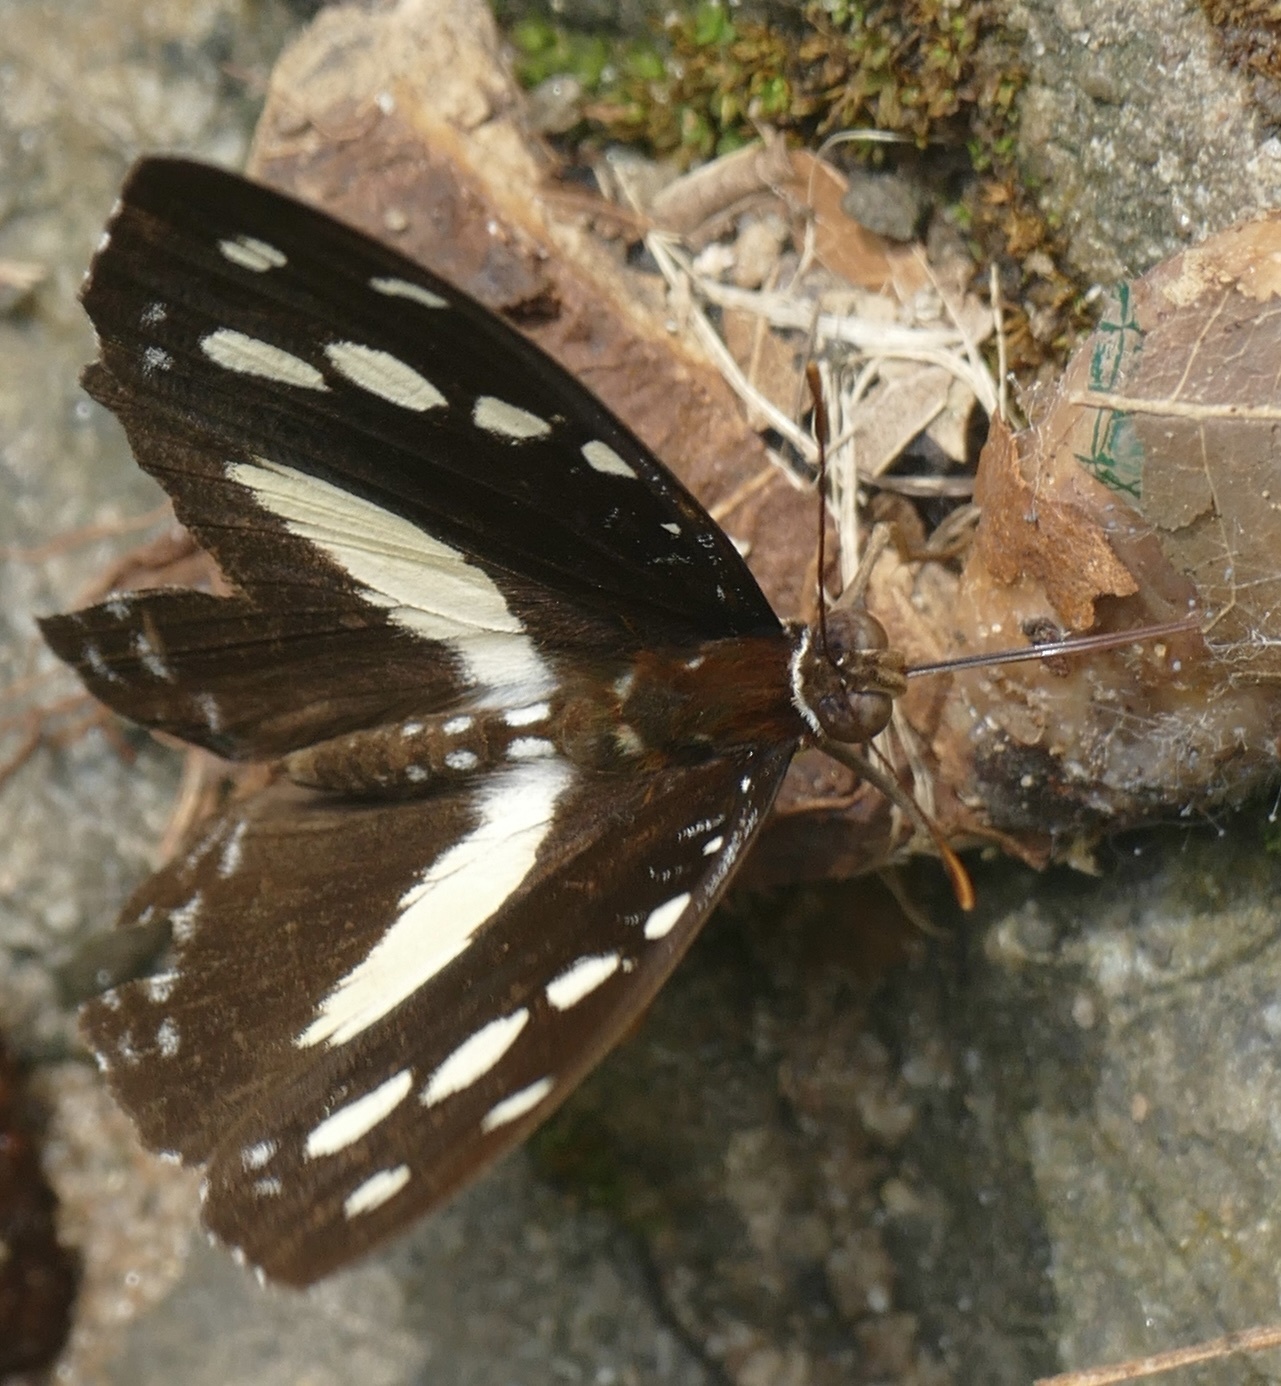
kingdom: Animalia
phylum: Arthropoda
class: Insecta
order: Lepidoptera
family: Nymphalidae
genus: Aterica
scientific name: Aterica galene
